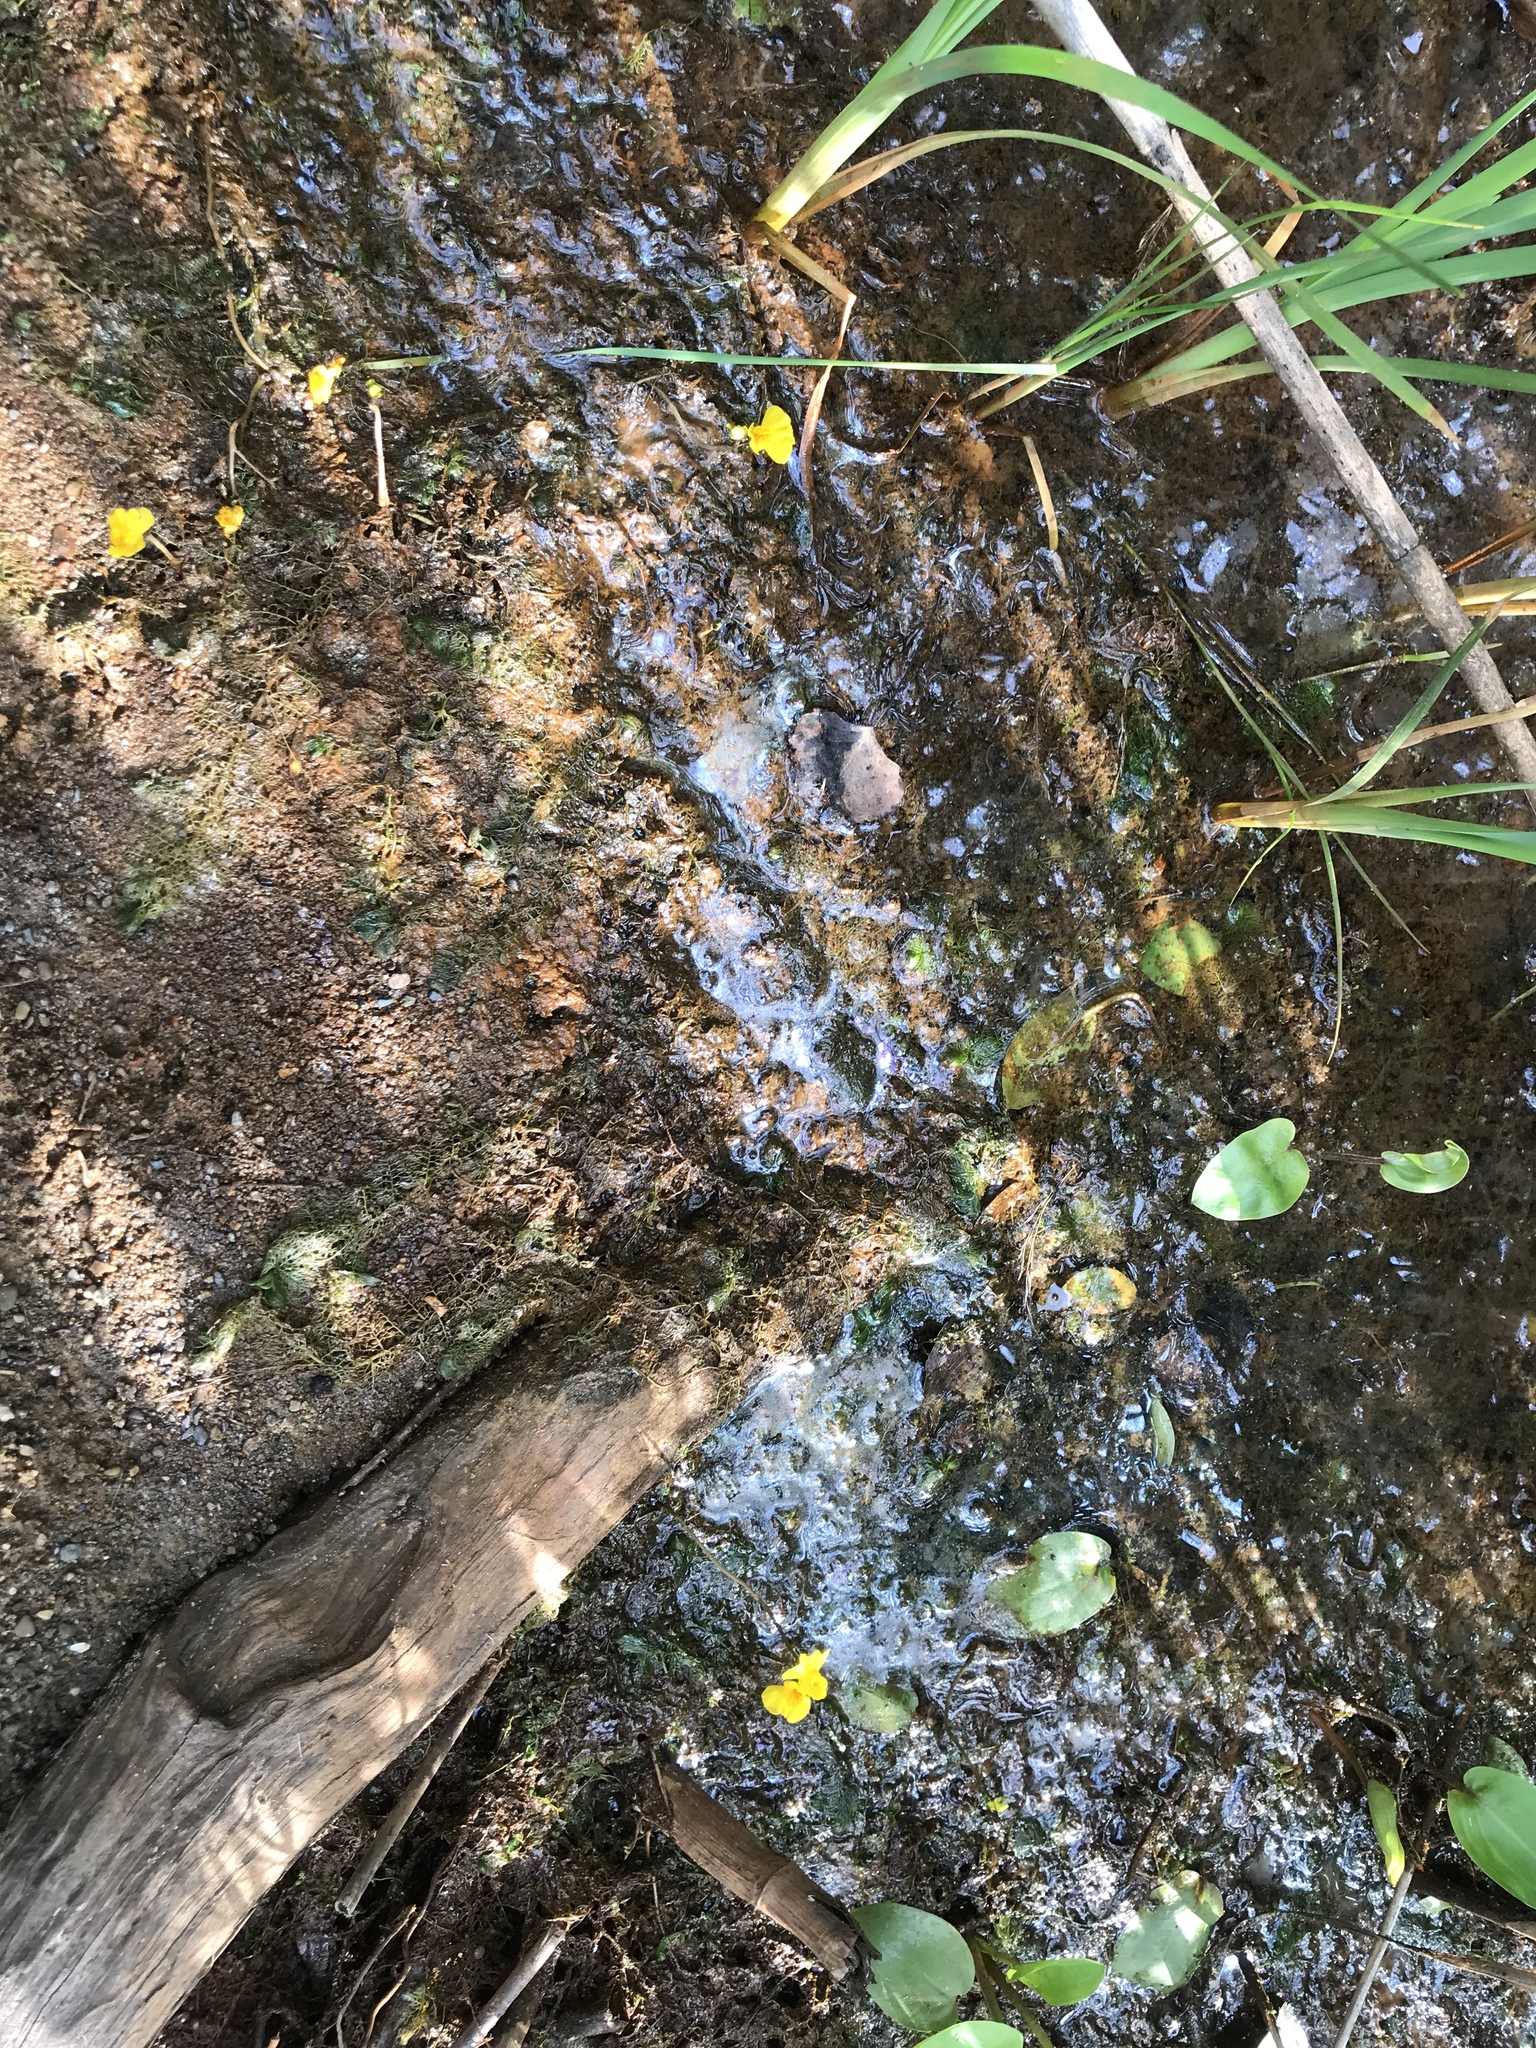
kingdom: Plantae
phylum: Tracheophyta
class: Magnoliopsida
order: Lamiales
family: Lentibulariaceae
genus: Utricularia
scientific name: Utricularia macrorhiza
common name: Common bladderwort
